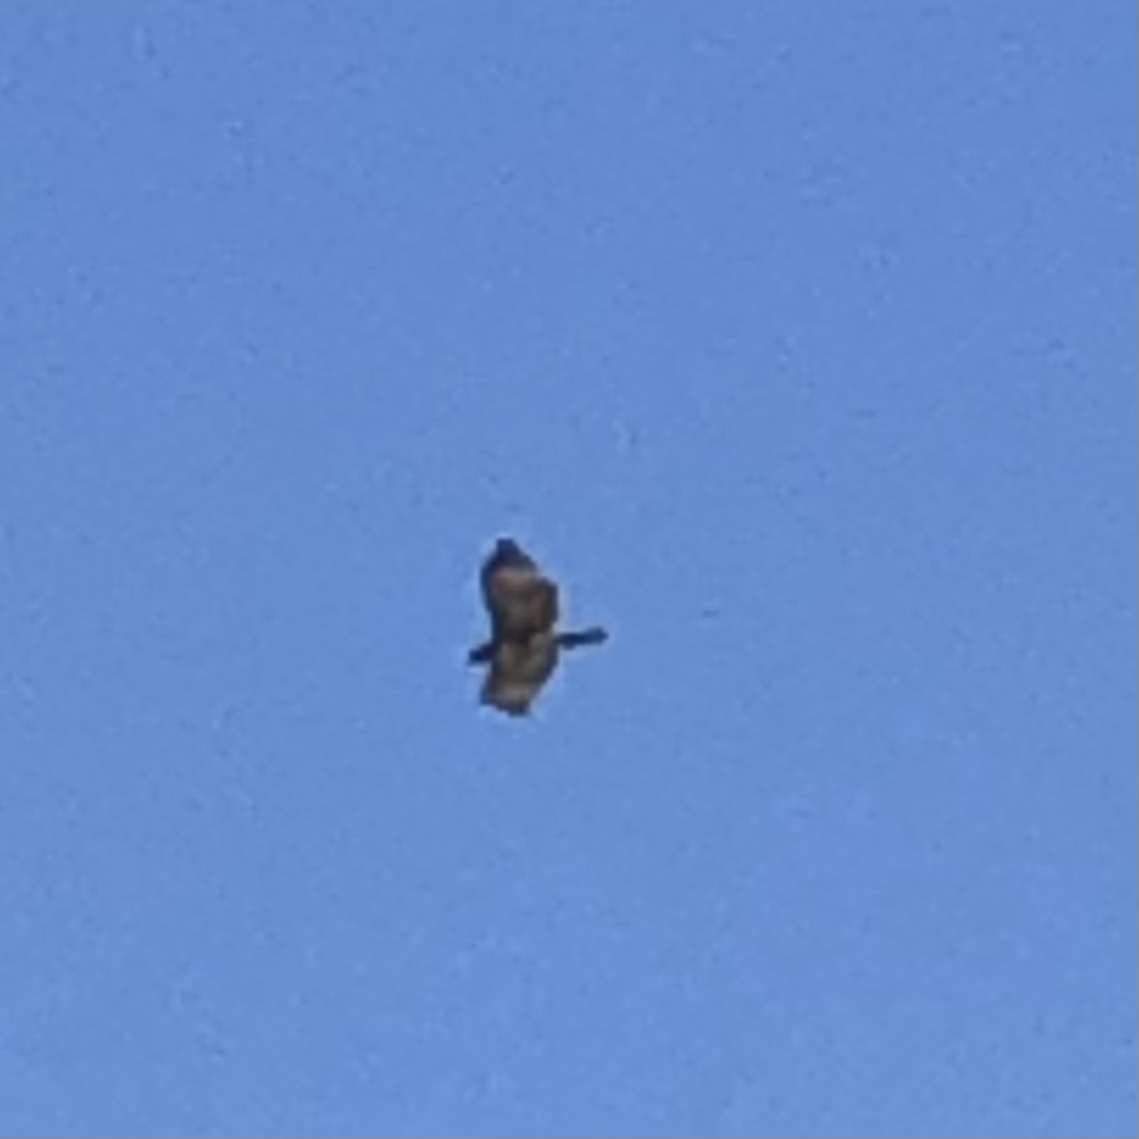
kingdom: Animalia
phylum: Chordata
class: Aves
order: Accipitriformes
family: Accipitridae
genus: Buteo
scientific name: Buteo jamaicensis
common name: Red-tailed hawk
